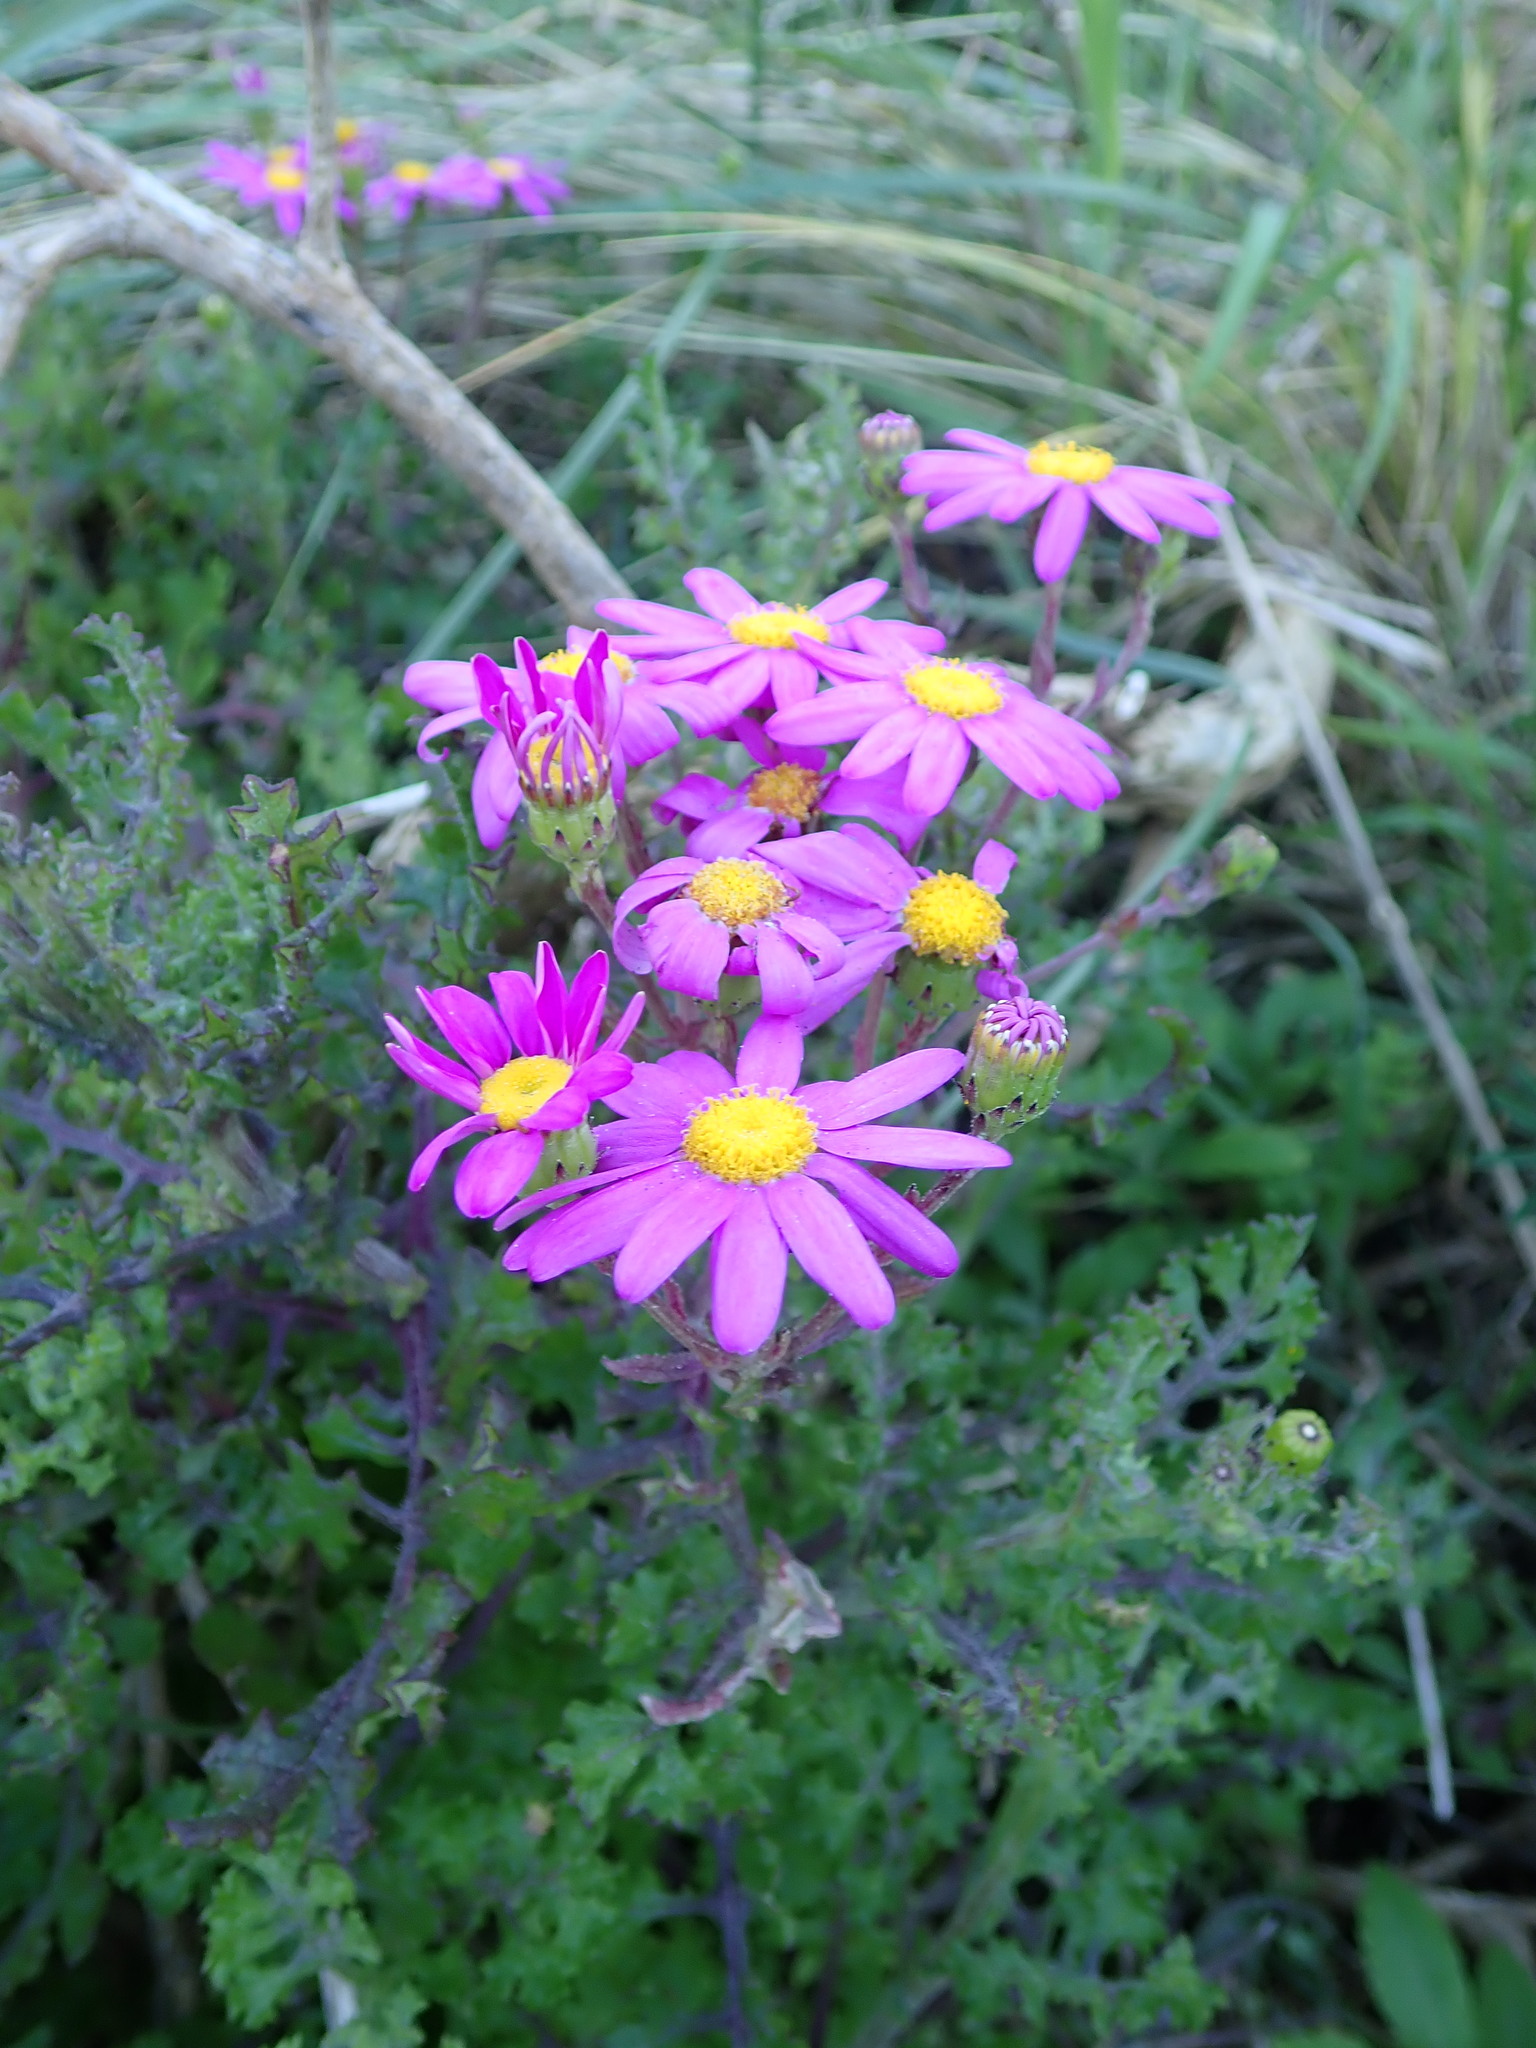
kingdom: Plantae
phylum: Tracheophyta
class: Magnoliopsida
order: Asterales
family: Asteraceae
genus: Senecio
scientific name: Senecio elegans
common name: Purple groundsel
